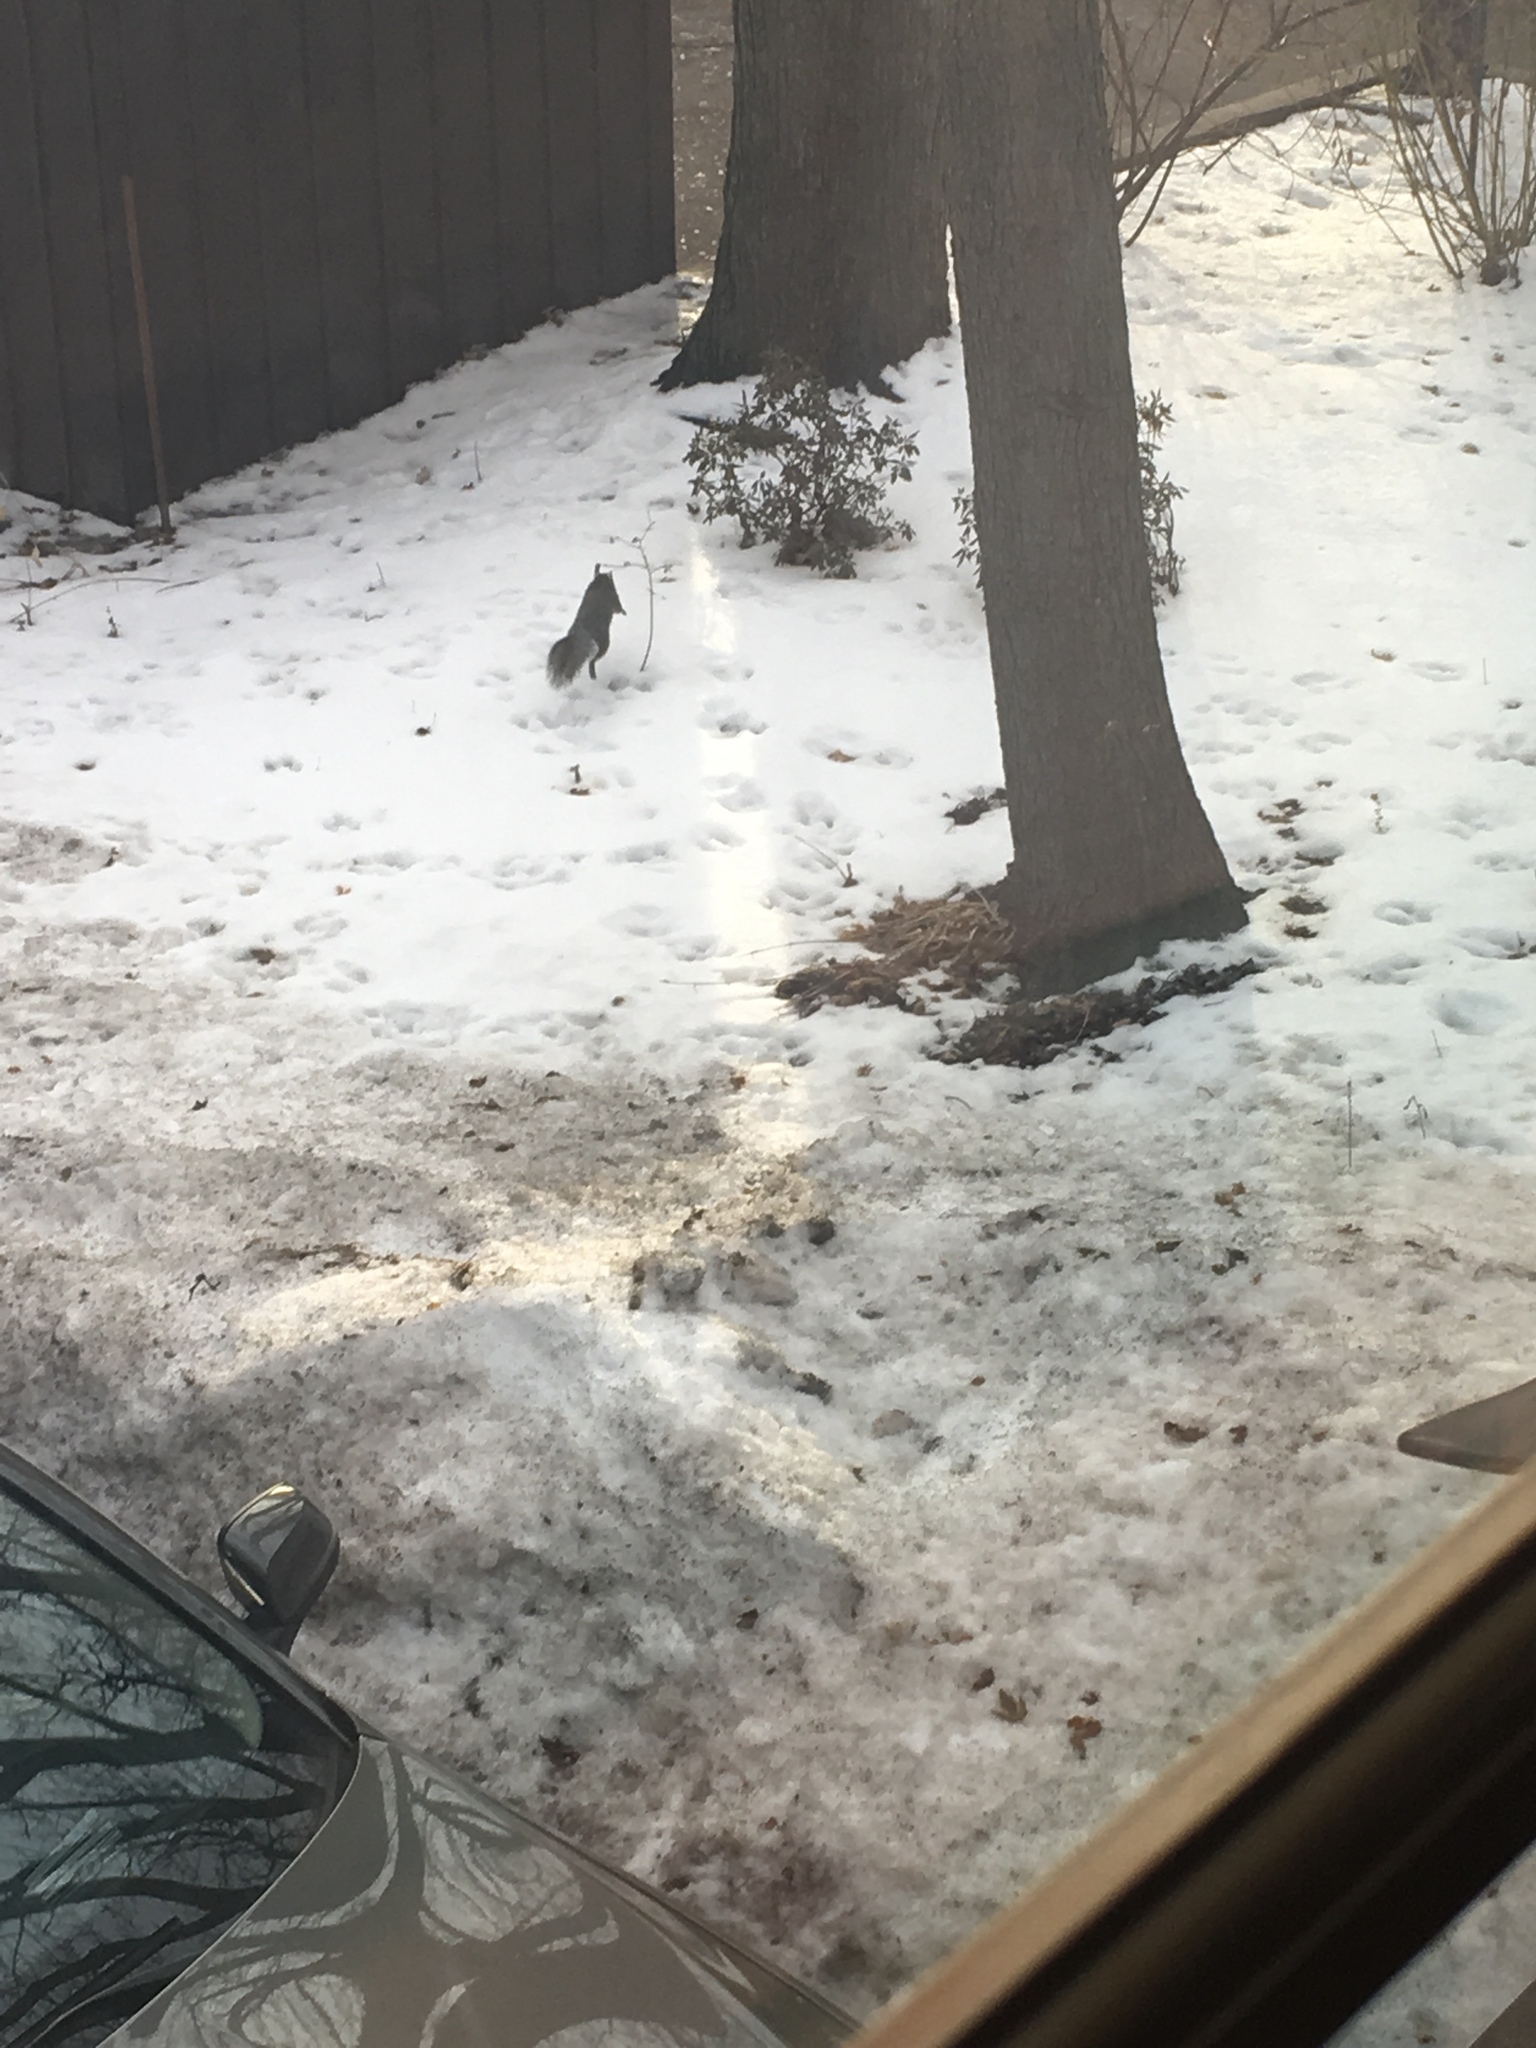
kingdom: Animalia
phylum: Chordata
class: Mammalia
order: Rodentia
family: Sciuridae
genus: Sciurus
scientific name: Sciurus carolinensis
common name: Eastern gray squirrel
